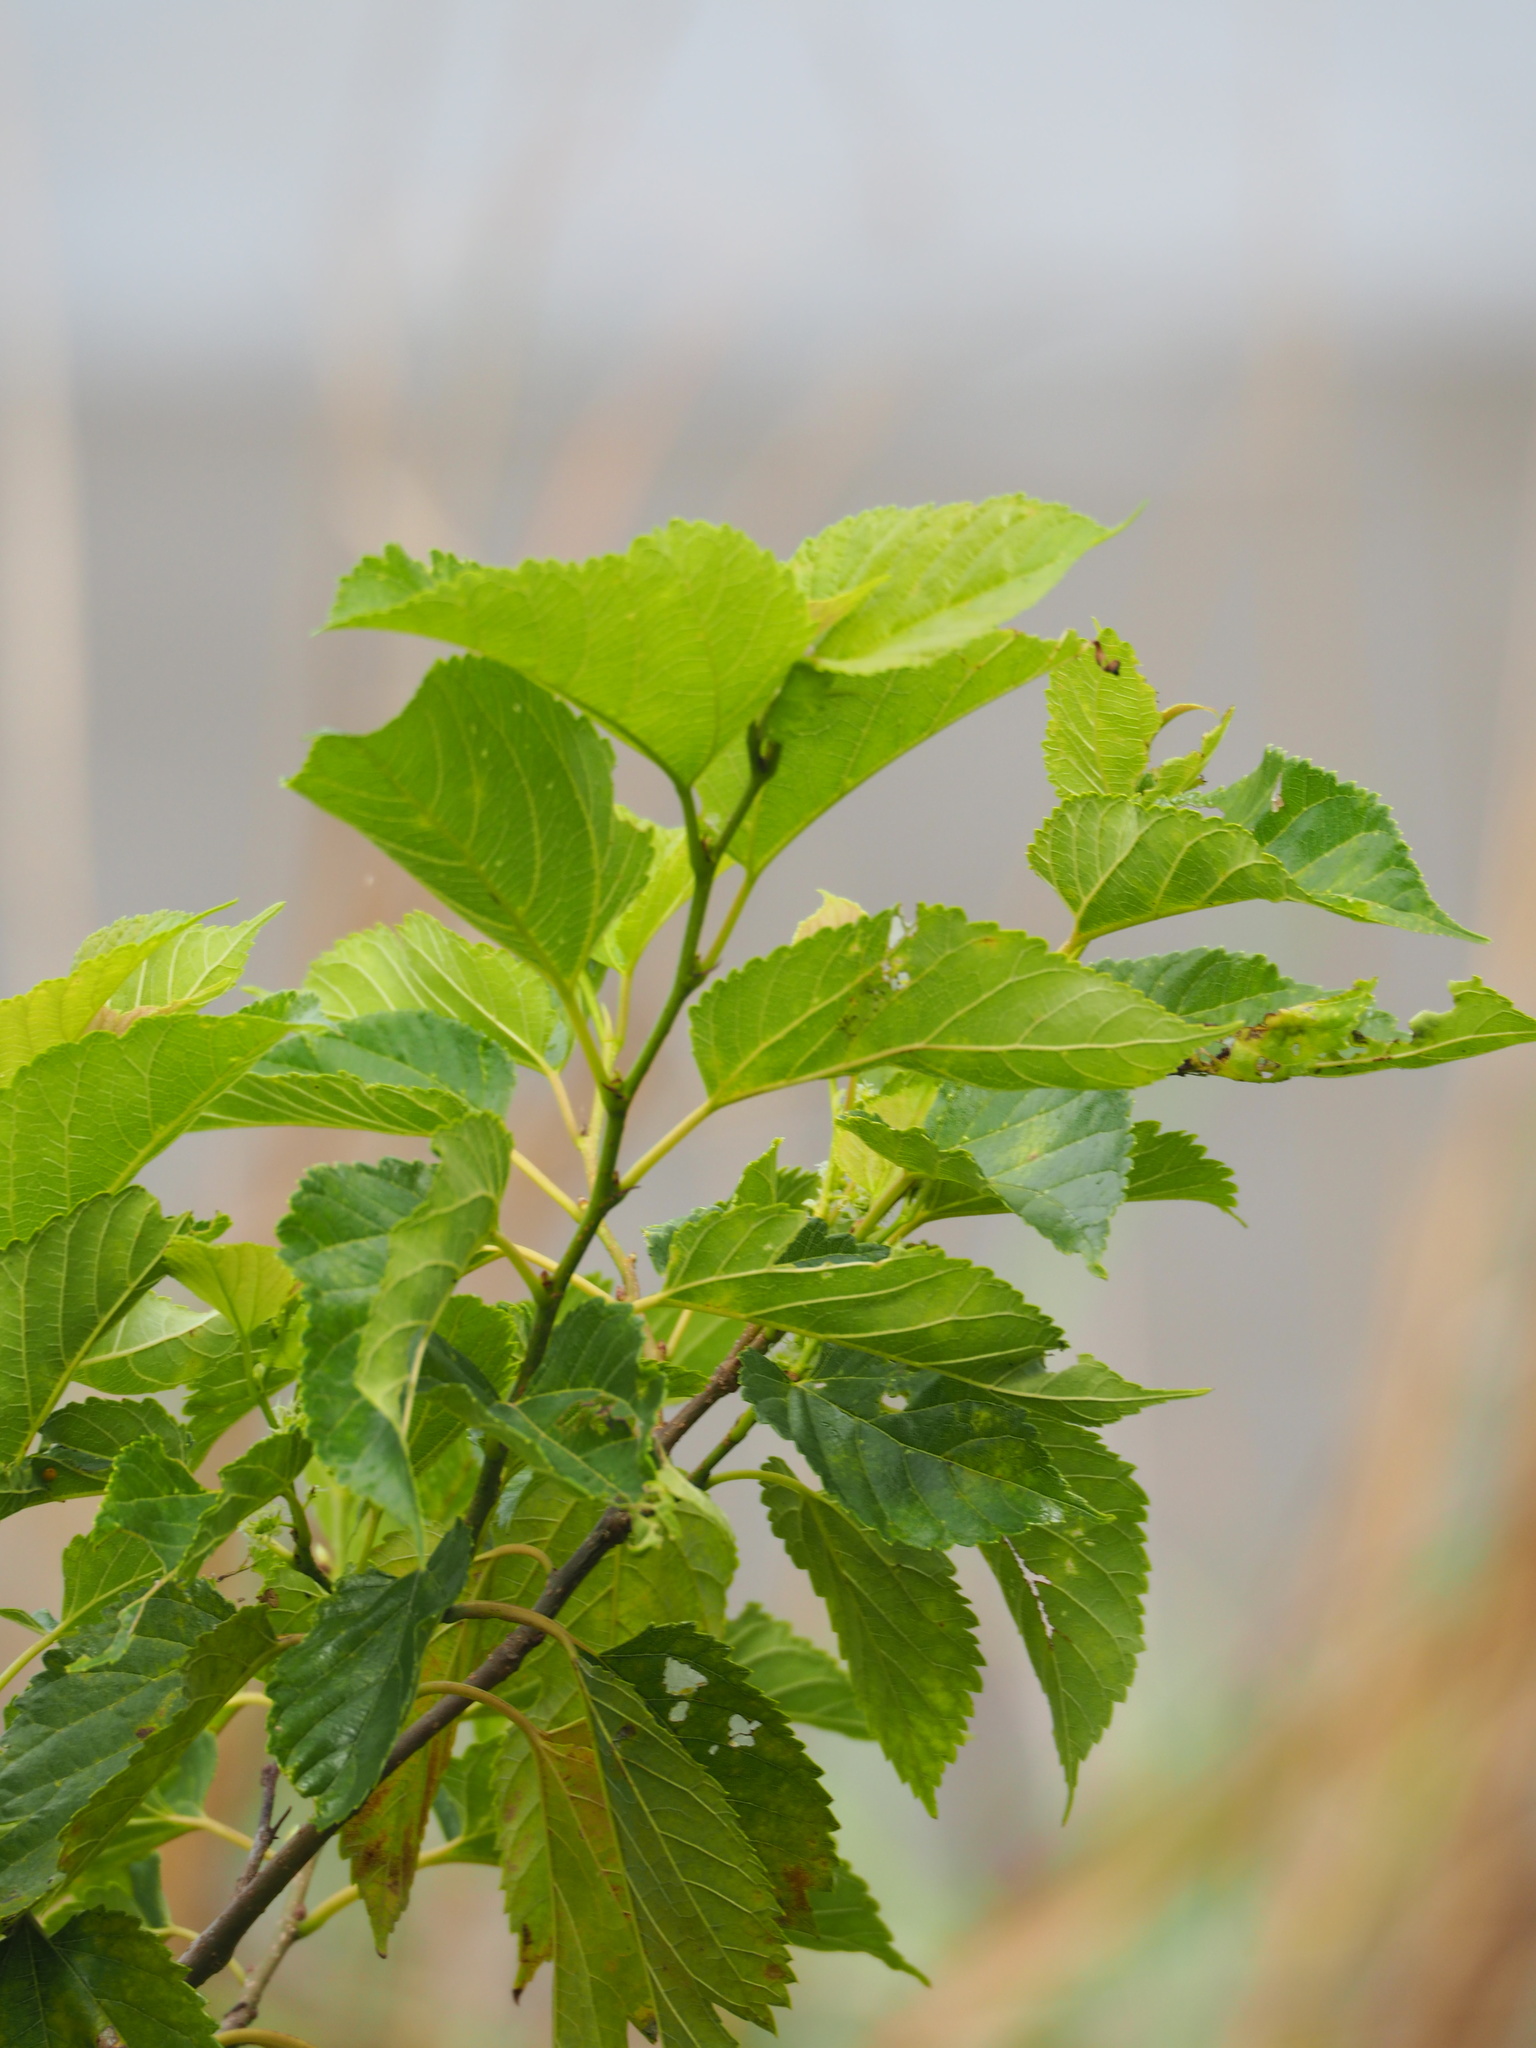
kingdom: Plantae
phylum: Tracheophyta
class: Magnoliopsida
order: Rosales
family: Moraceae
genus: Morus
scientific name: Morus indica
